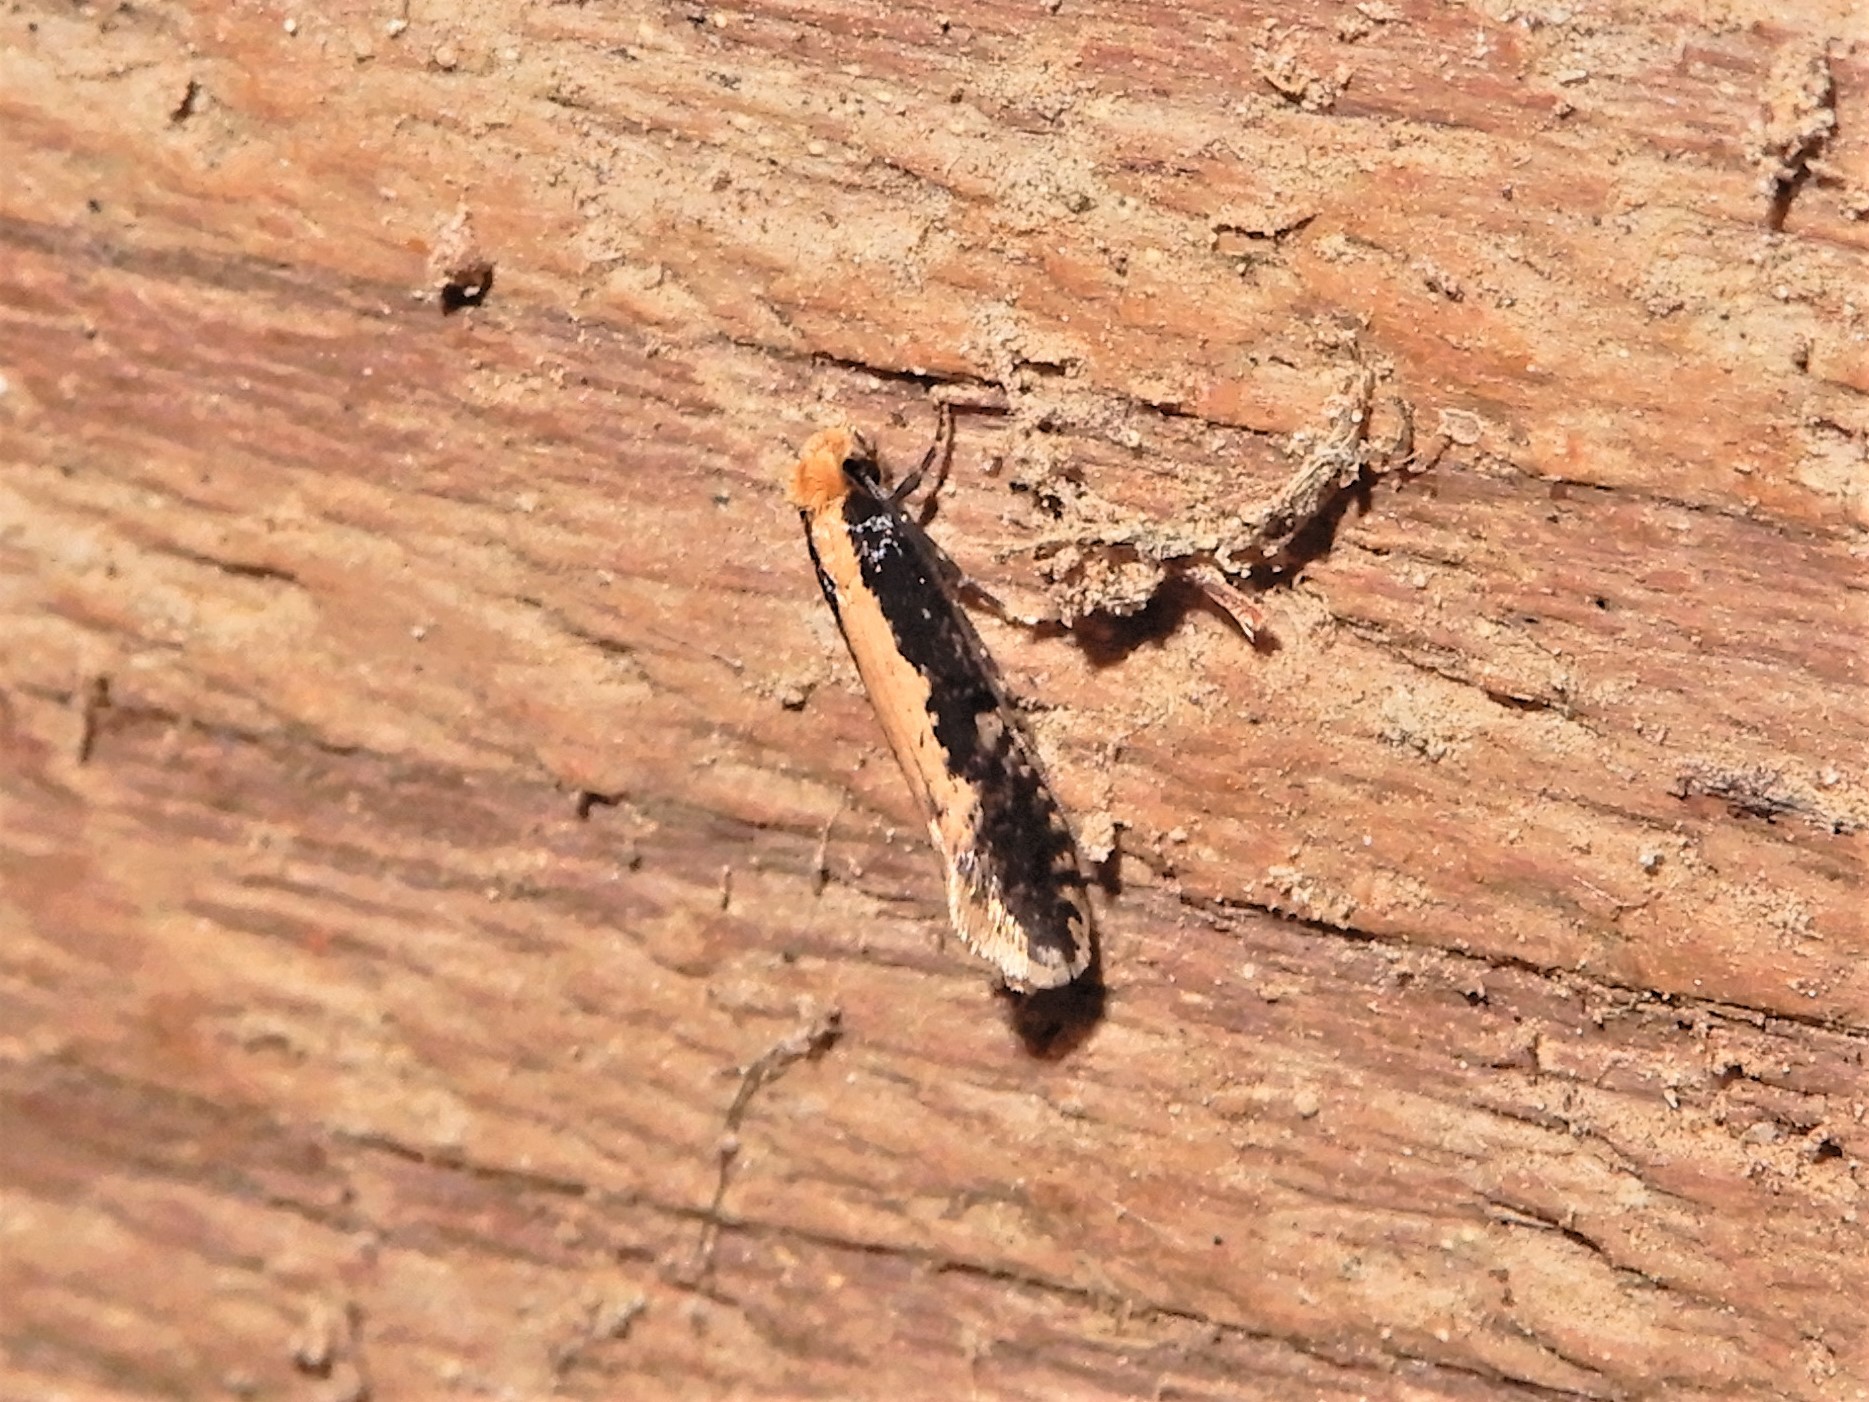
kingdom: Animalia
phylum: Arthropoda
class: Insecta
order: Lepidoptera
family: Tineidae
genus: Monopis
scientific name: Monopis crocicapitella
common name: Moth
